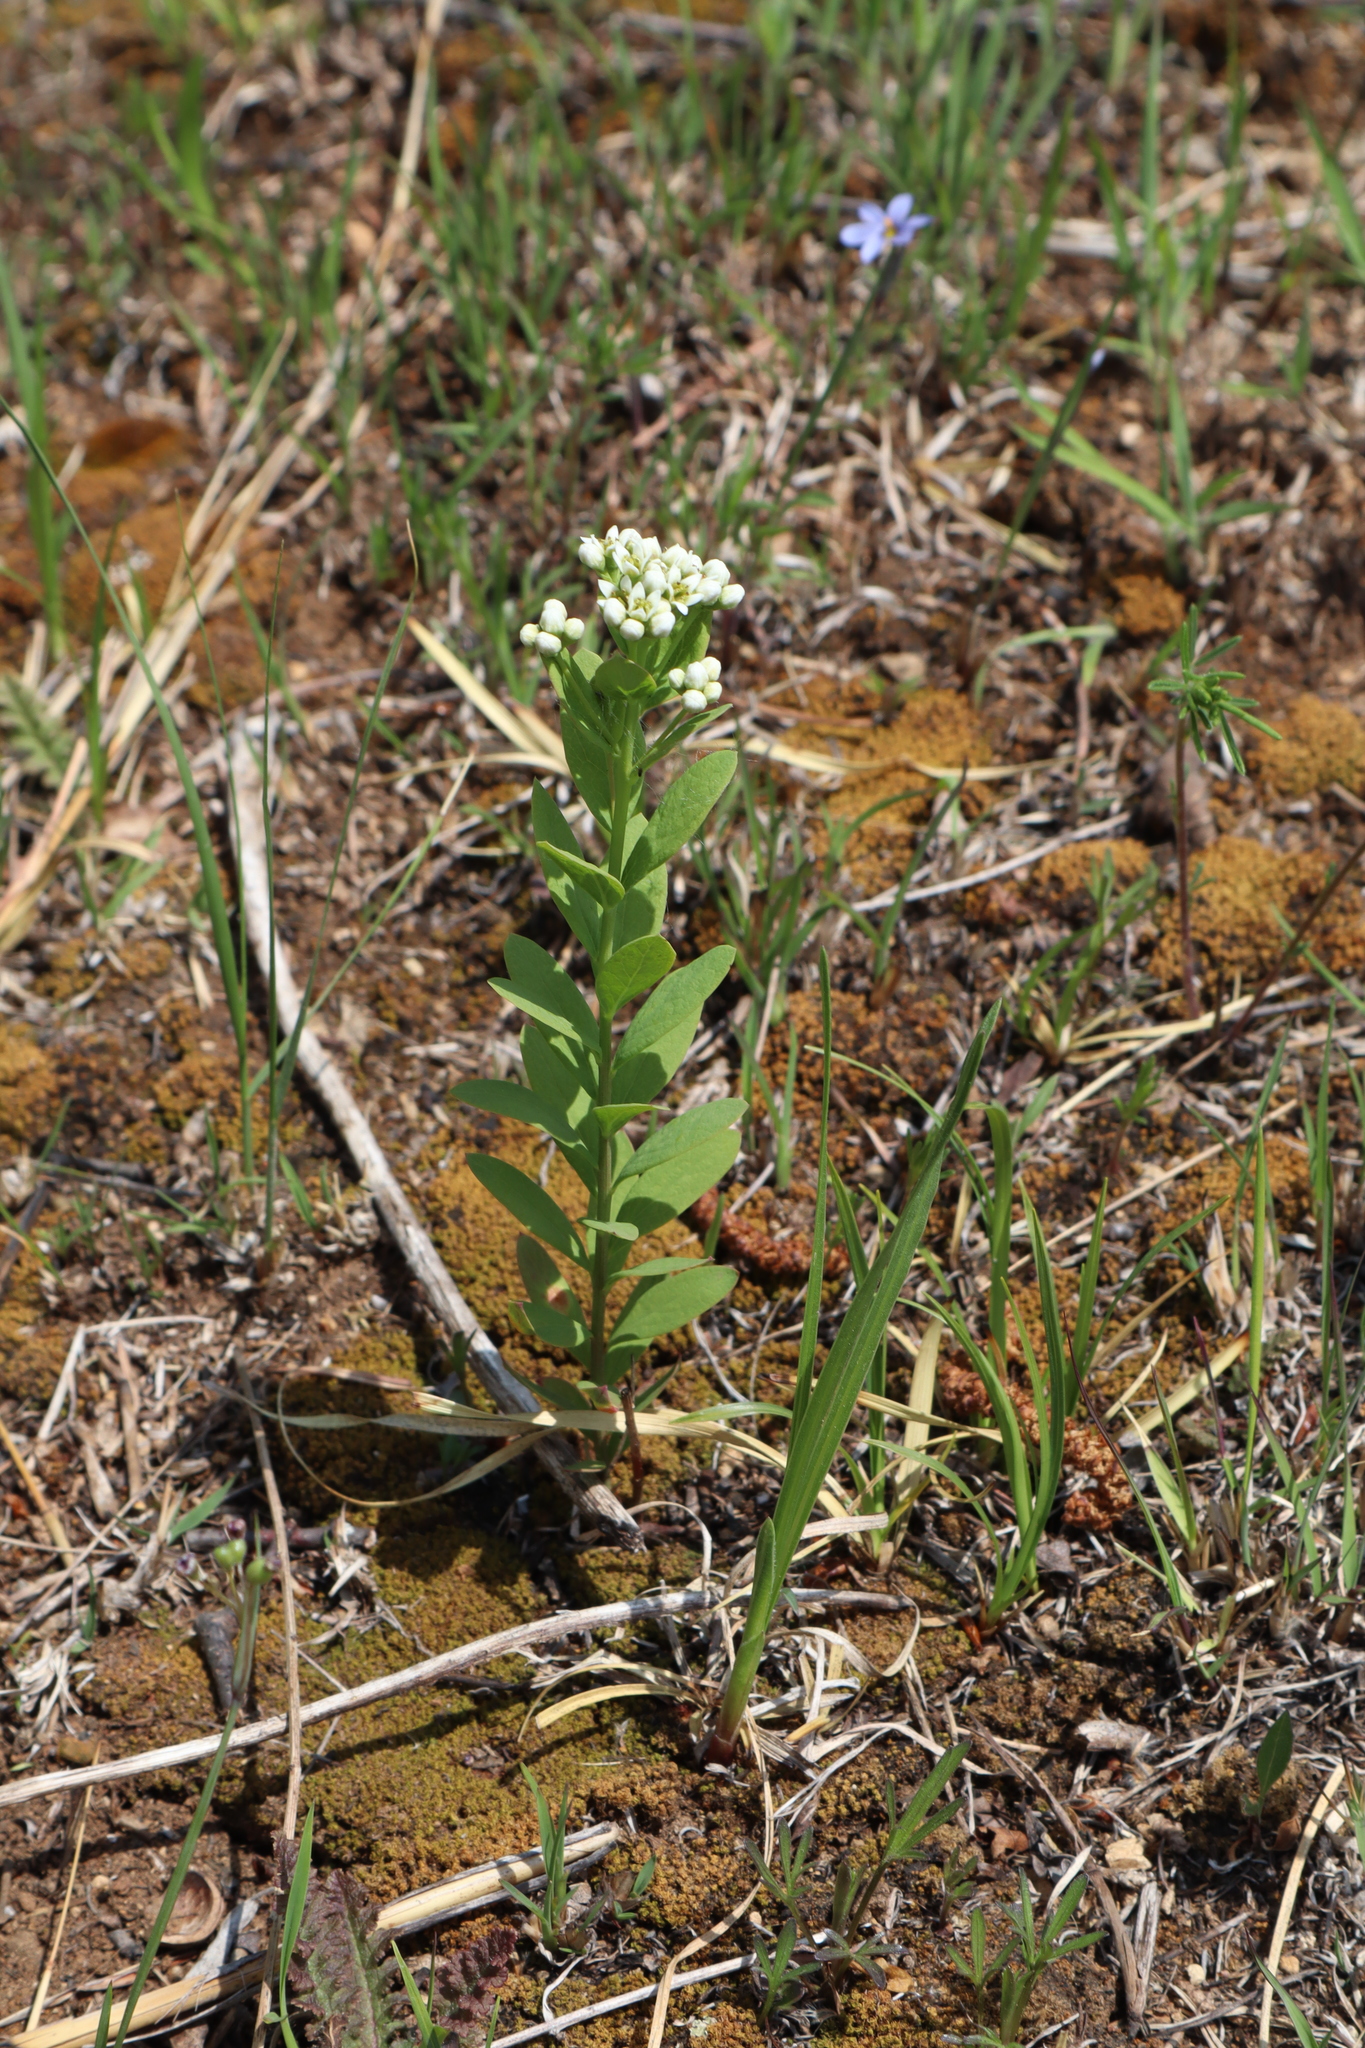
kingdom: Plantae
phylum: Tracheophyta
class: Magnoliopsida
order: Santalales
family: Comandraceae
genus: Comandra
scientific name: Comandra umbellata
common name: Bastard toadflax
